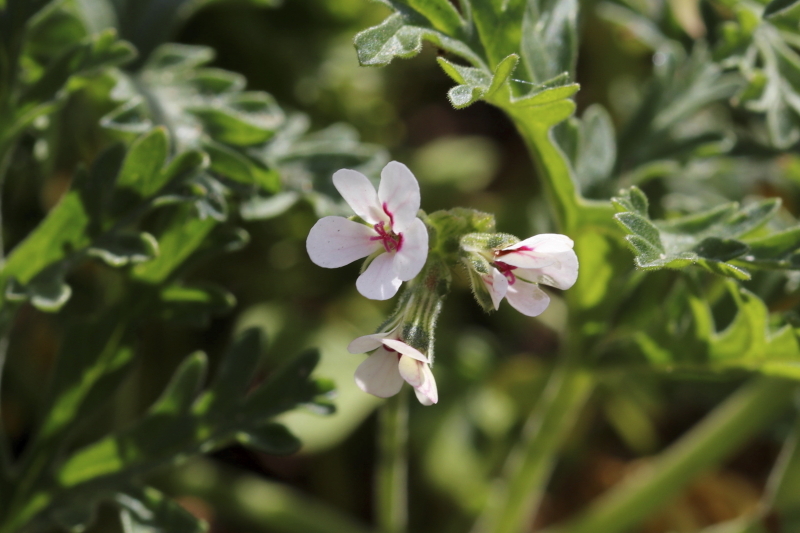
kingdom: Plantae
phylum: Tracheophyta
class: Magnoliopsida
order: Geraniales
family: Geraniaceae
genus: Pelargonium
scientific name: Pelargonium senecioides
